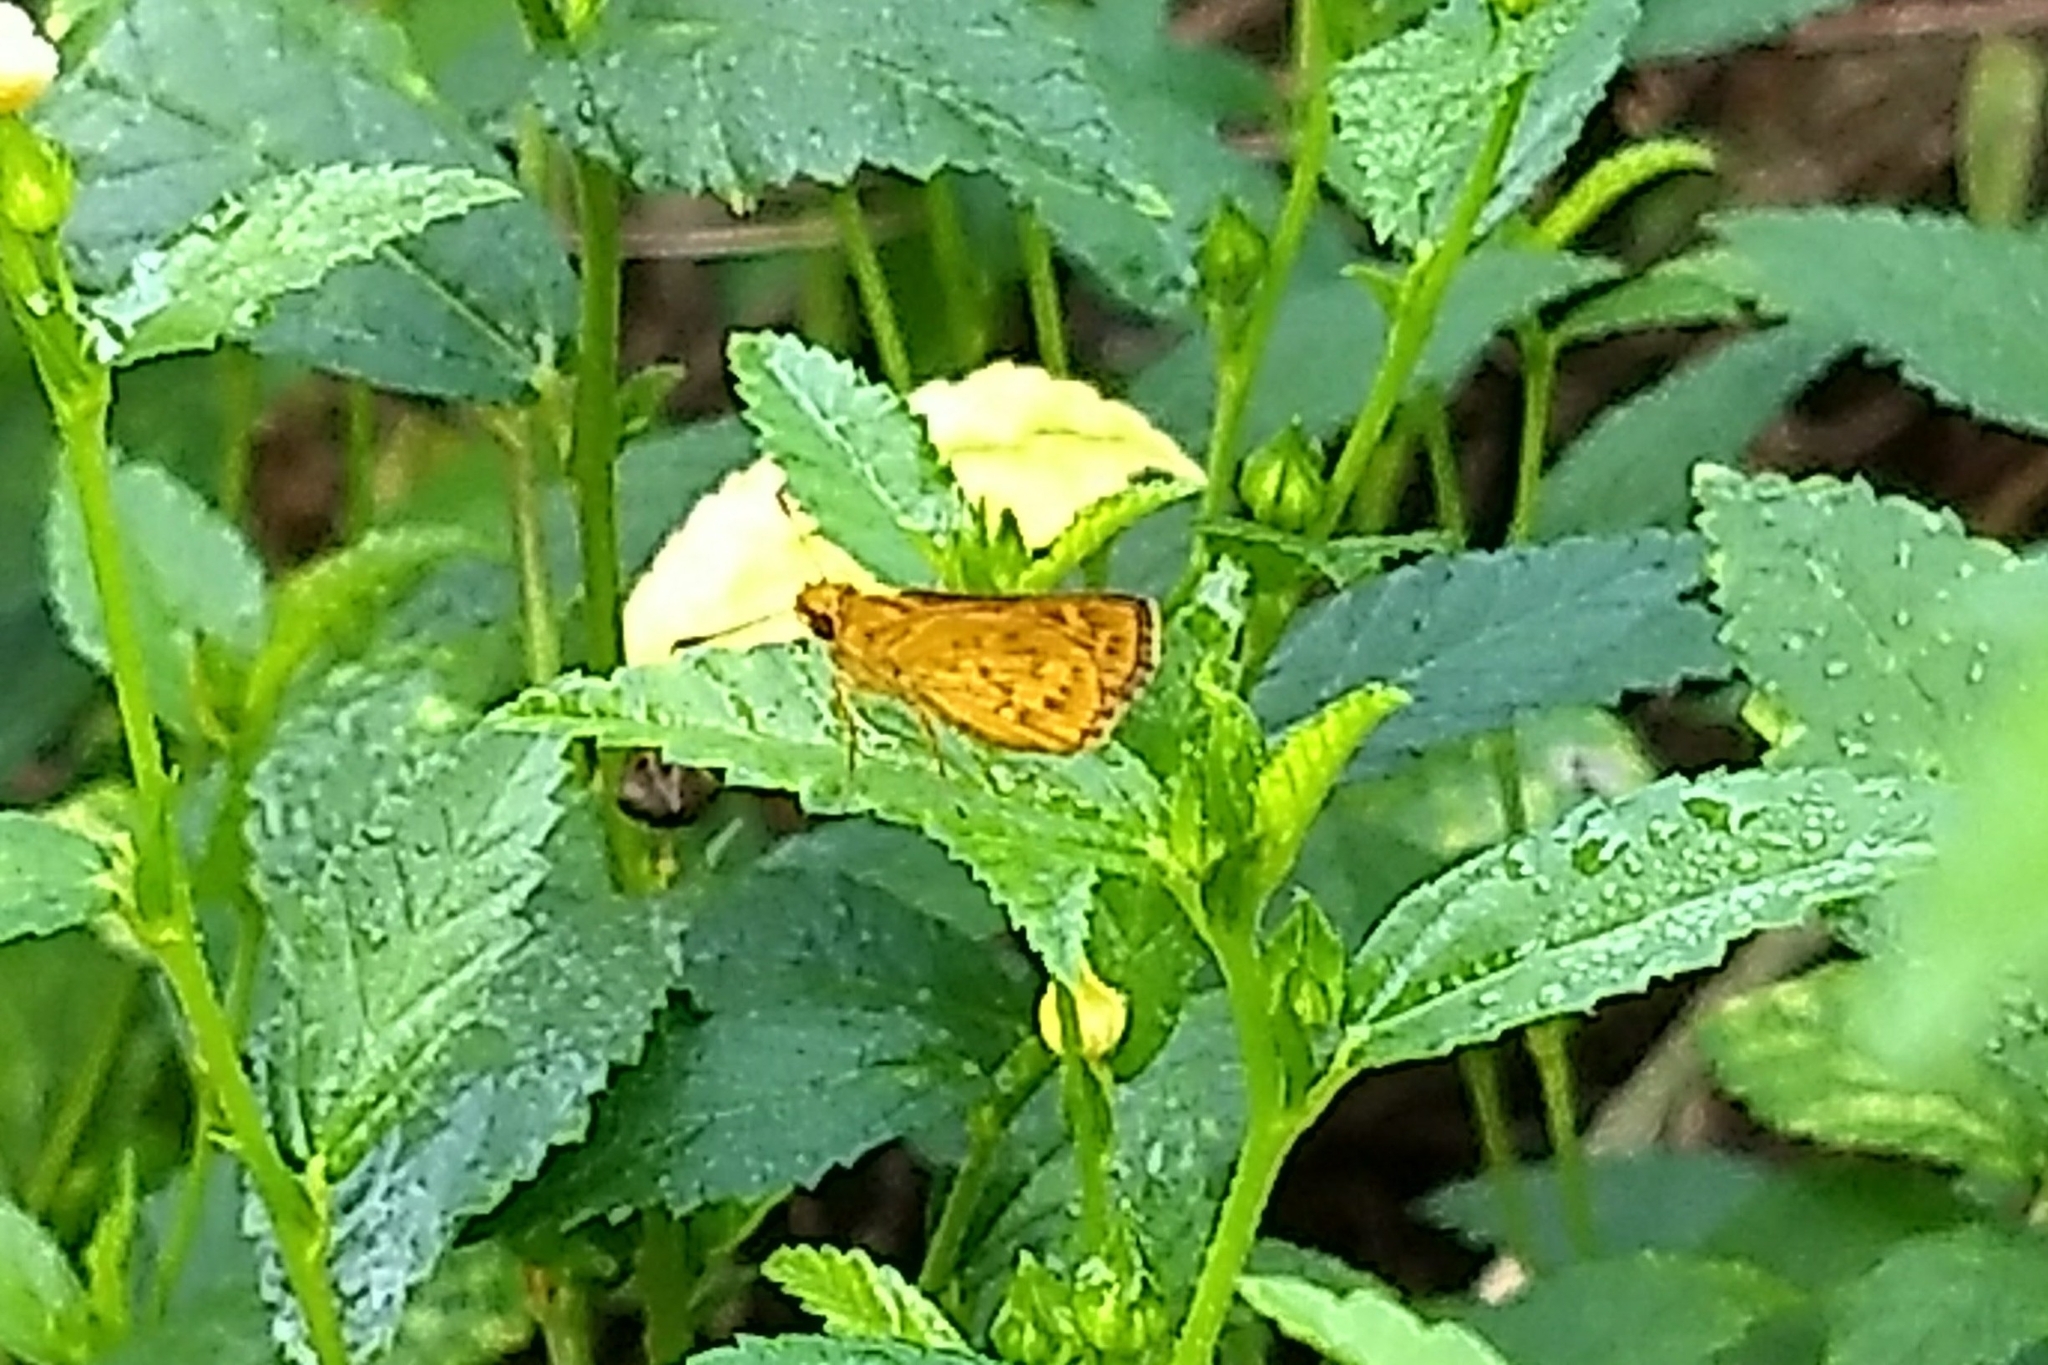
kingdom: Animalia
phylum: Arthropoda
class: Insecta
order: Lepidoptera
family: Hesperiidae
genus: Ampittia
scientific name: Ampittia dioscorides
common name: Common bush hopper
